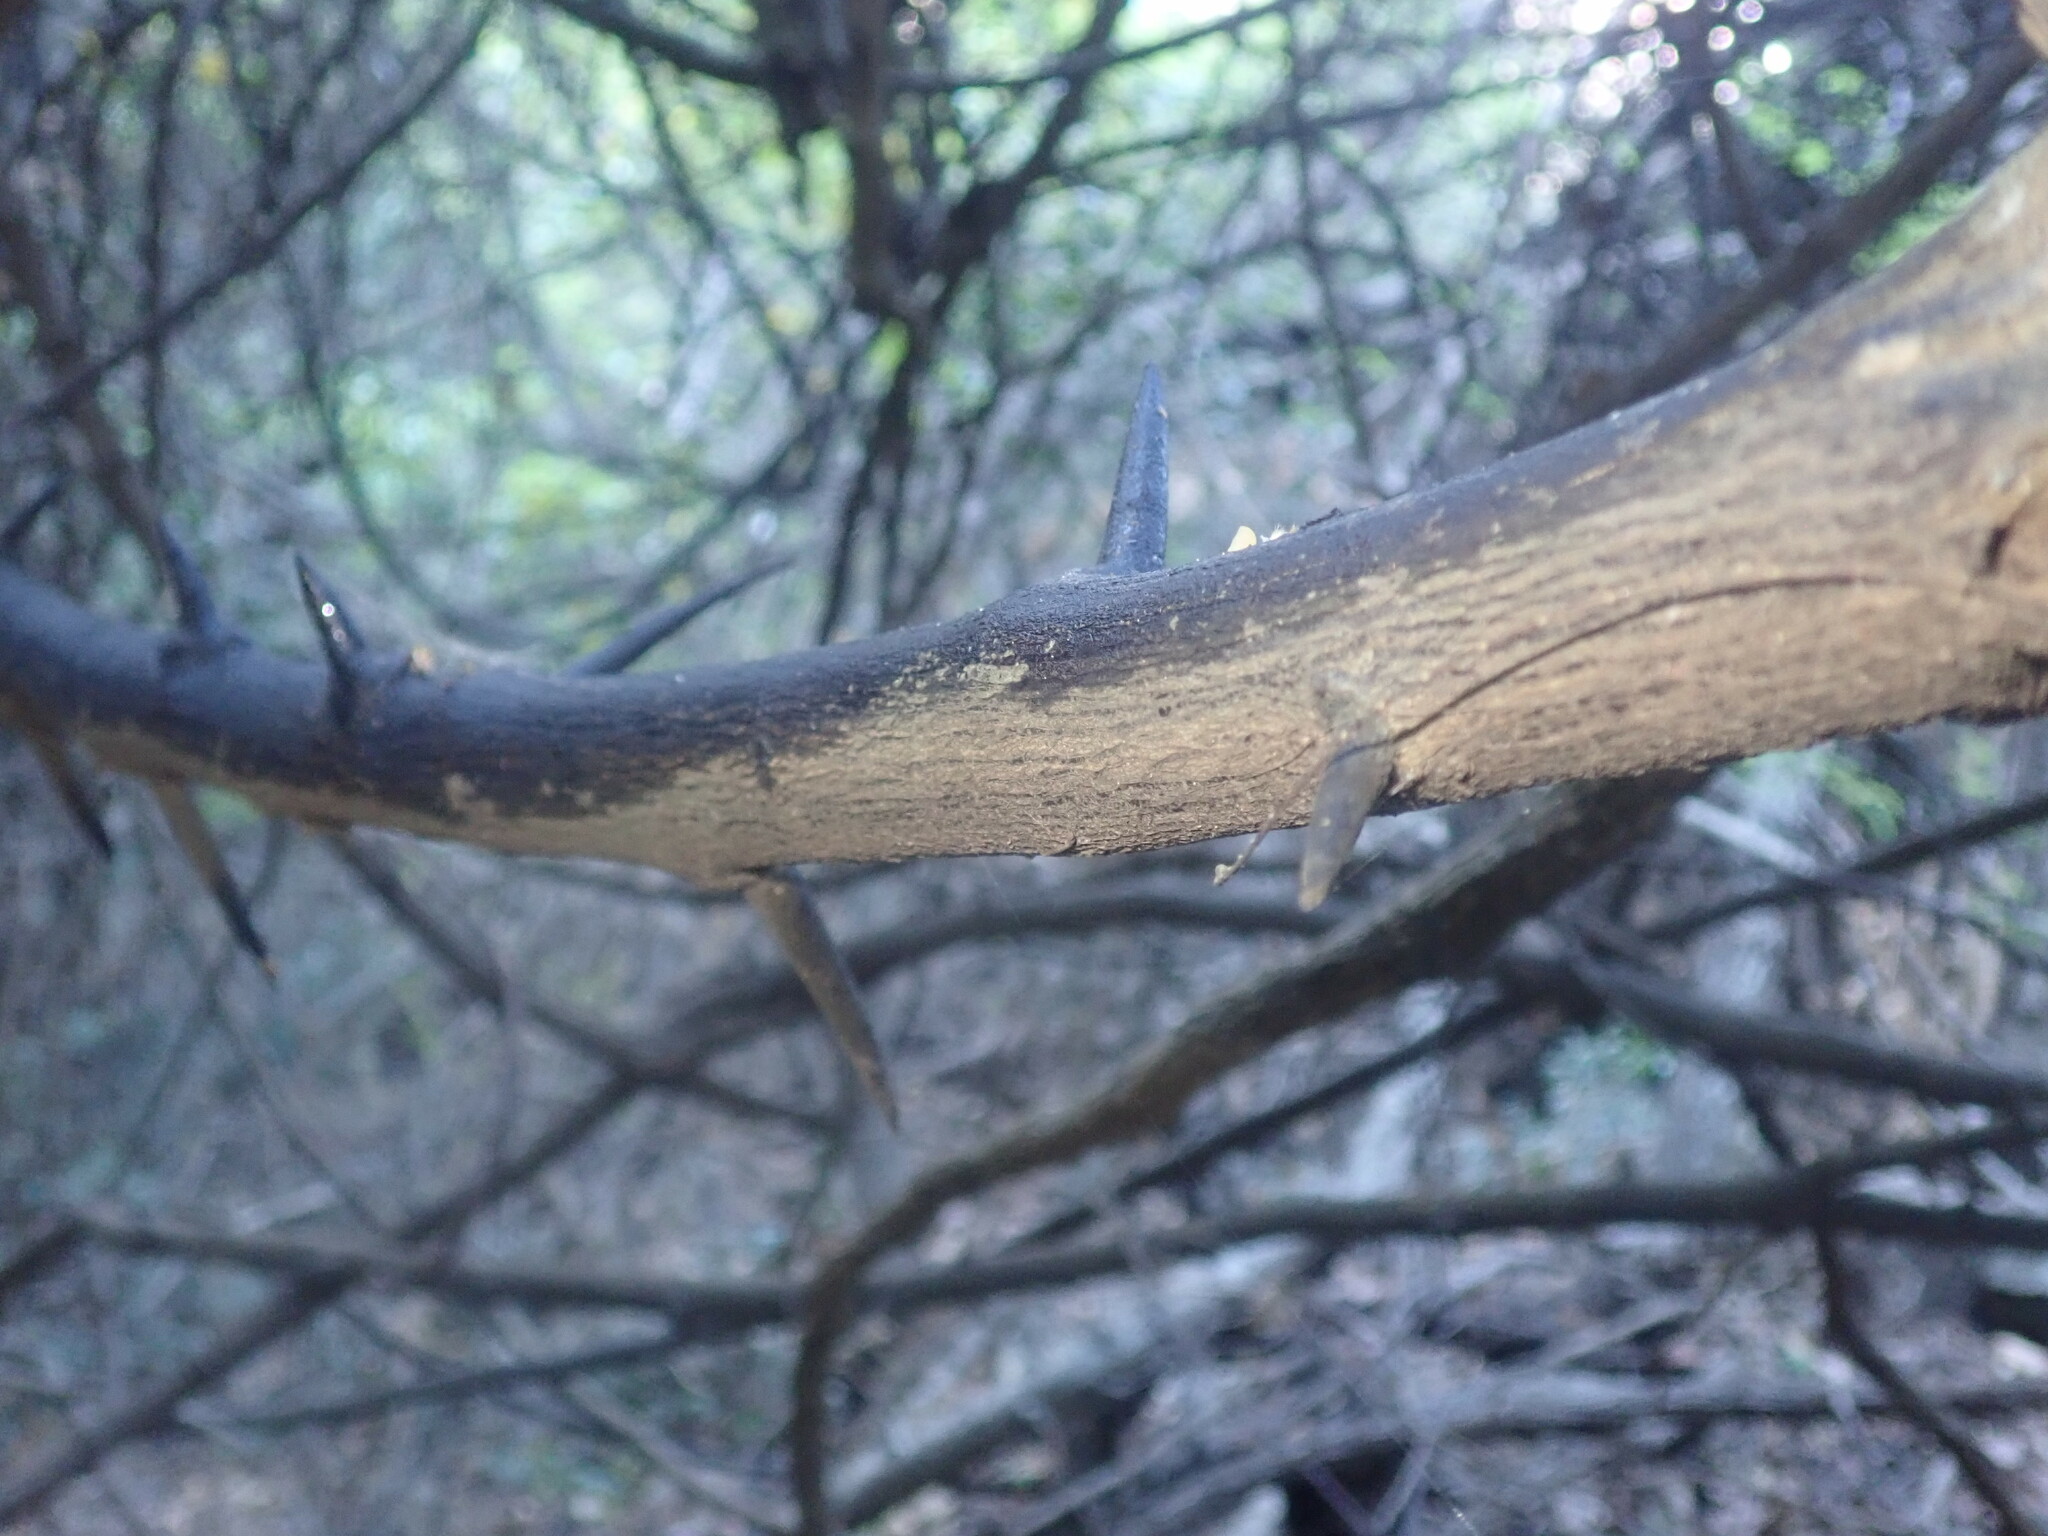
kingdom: Plantae
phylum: Tracheophyta
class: Magnoliopsida
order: Fabales
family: Fabaceae
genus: Dalbergia
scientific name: Dalbergia armata
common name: Hluhluwe climber
